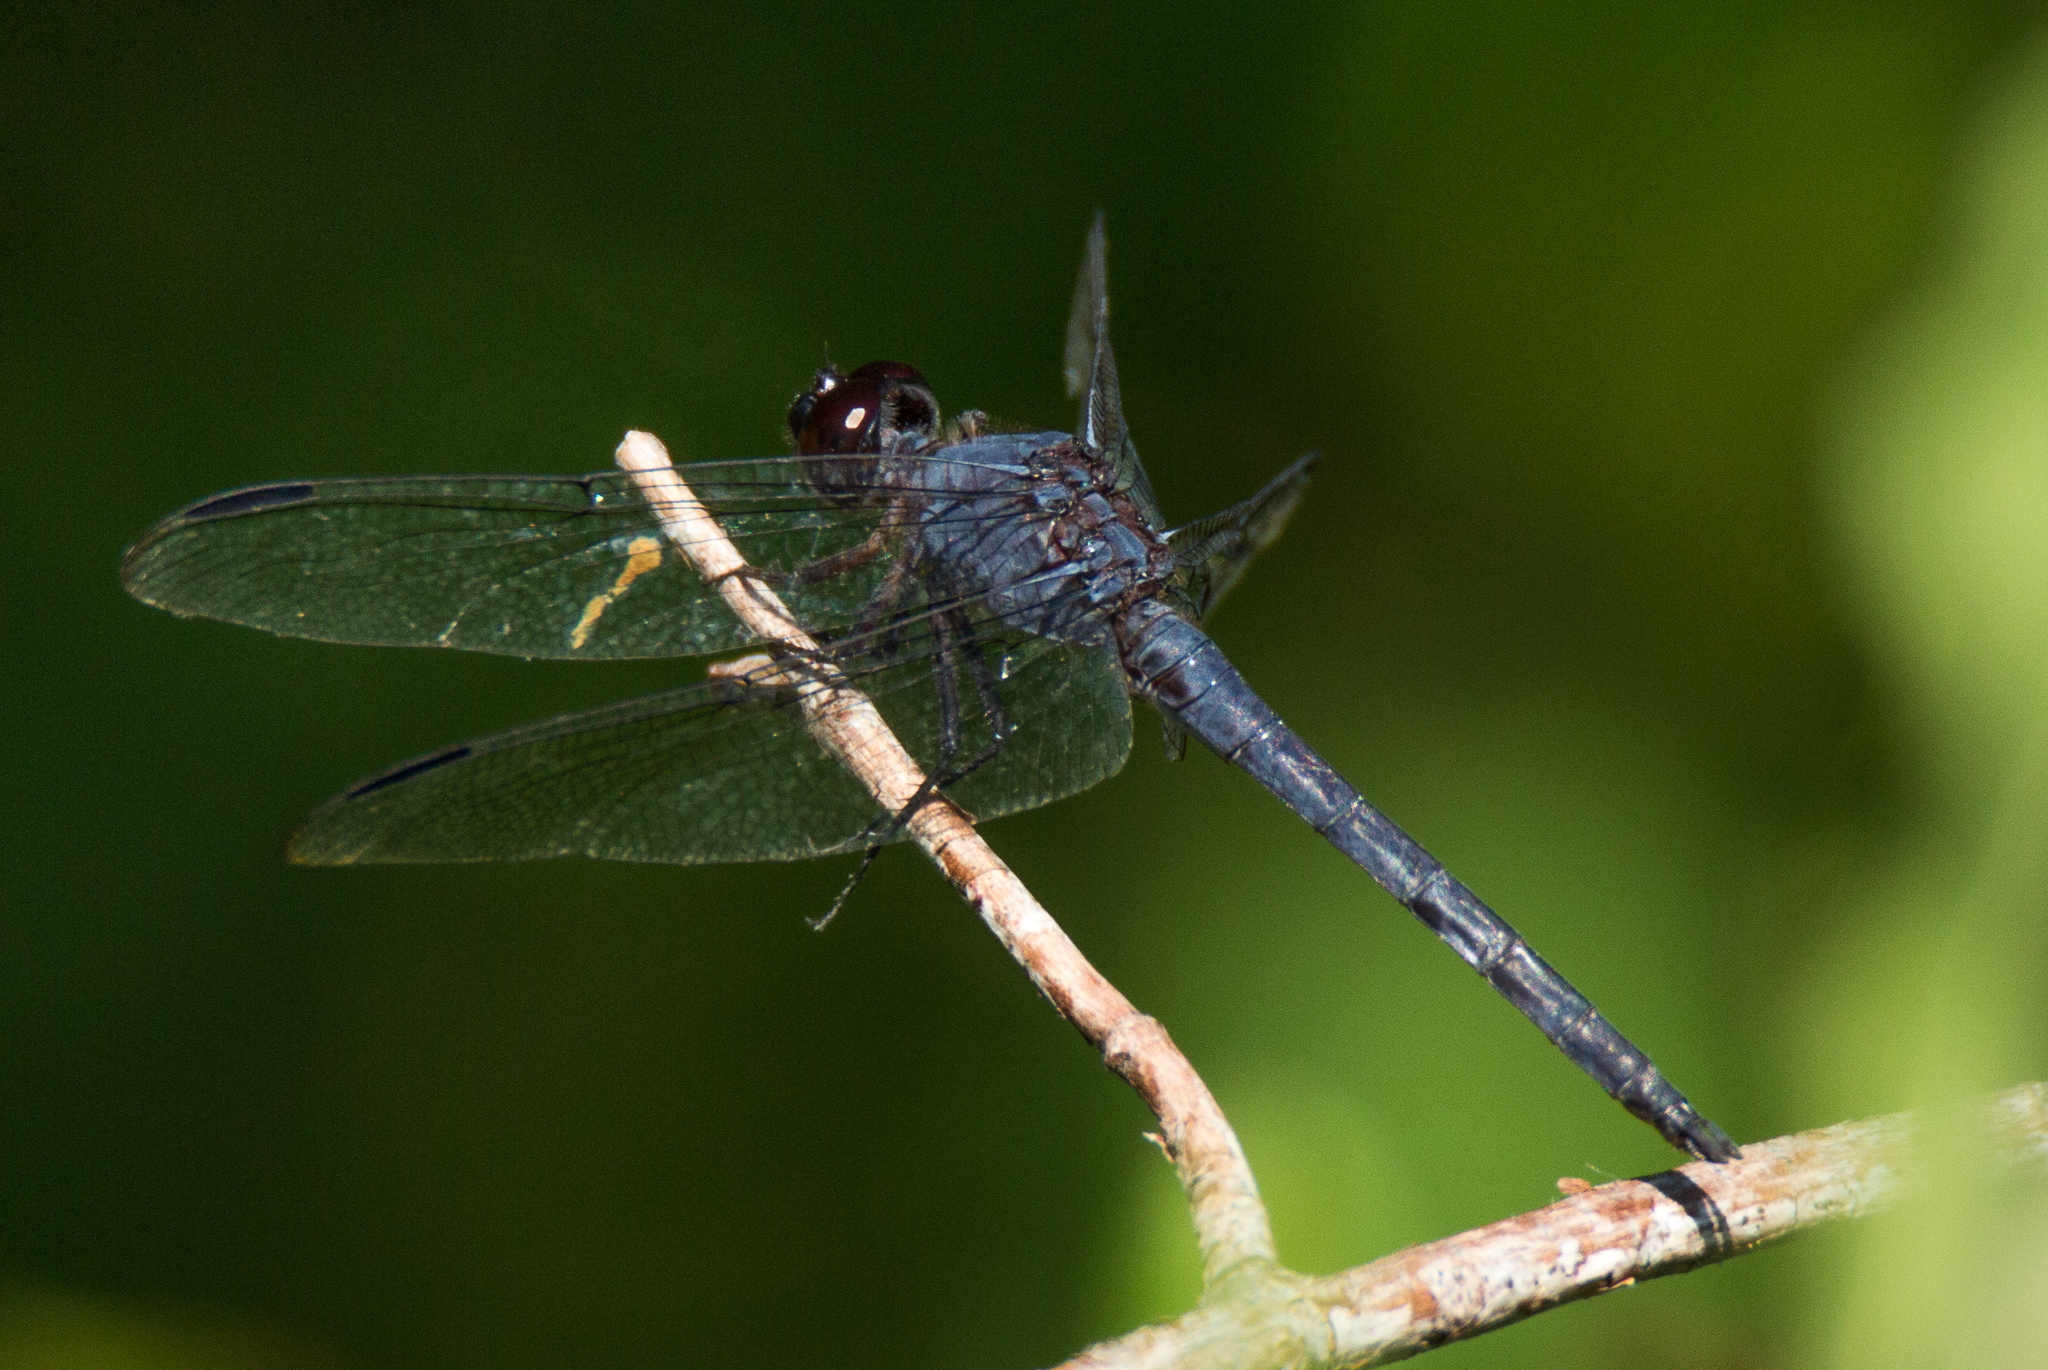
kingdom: Animalia
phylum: Arthropoda
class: Insecta
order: Odonata
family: Libellulidae
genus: Libellula
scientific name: Libellula incesta
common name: Slaty skimmer
